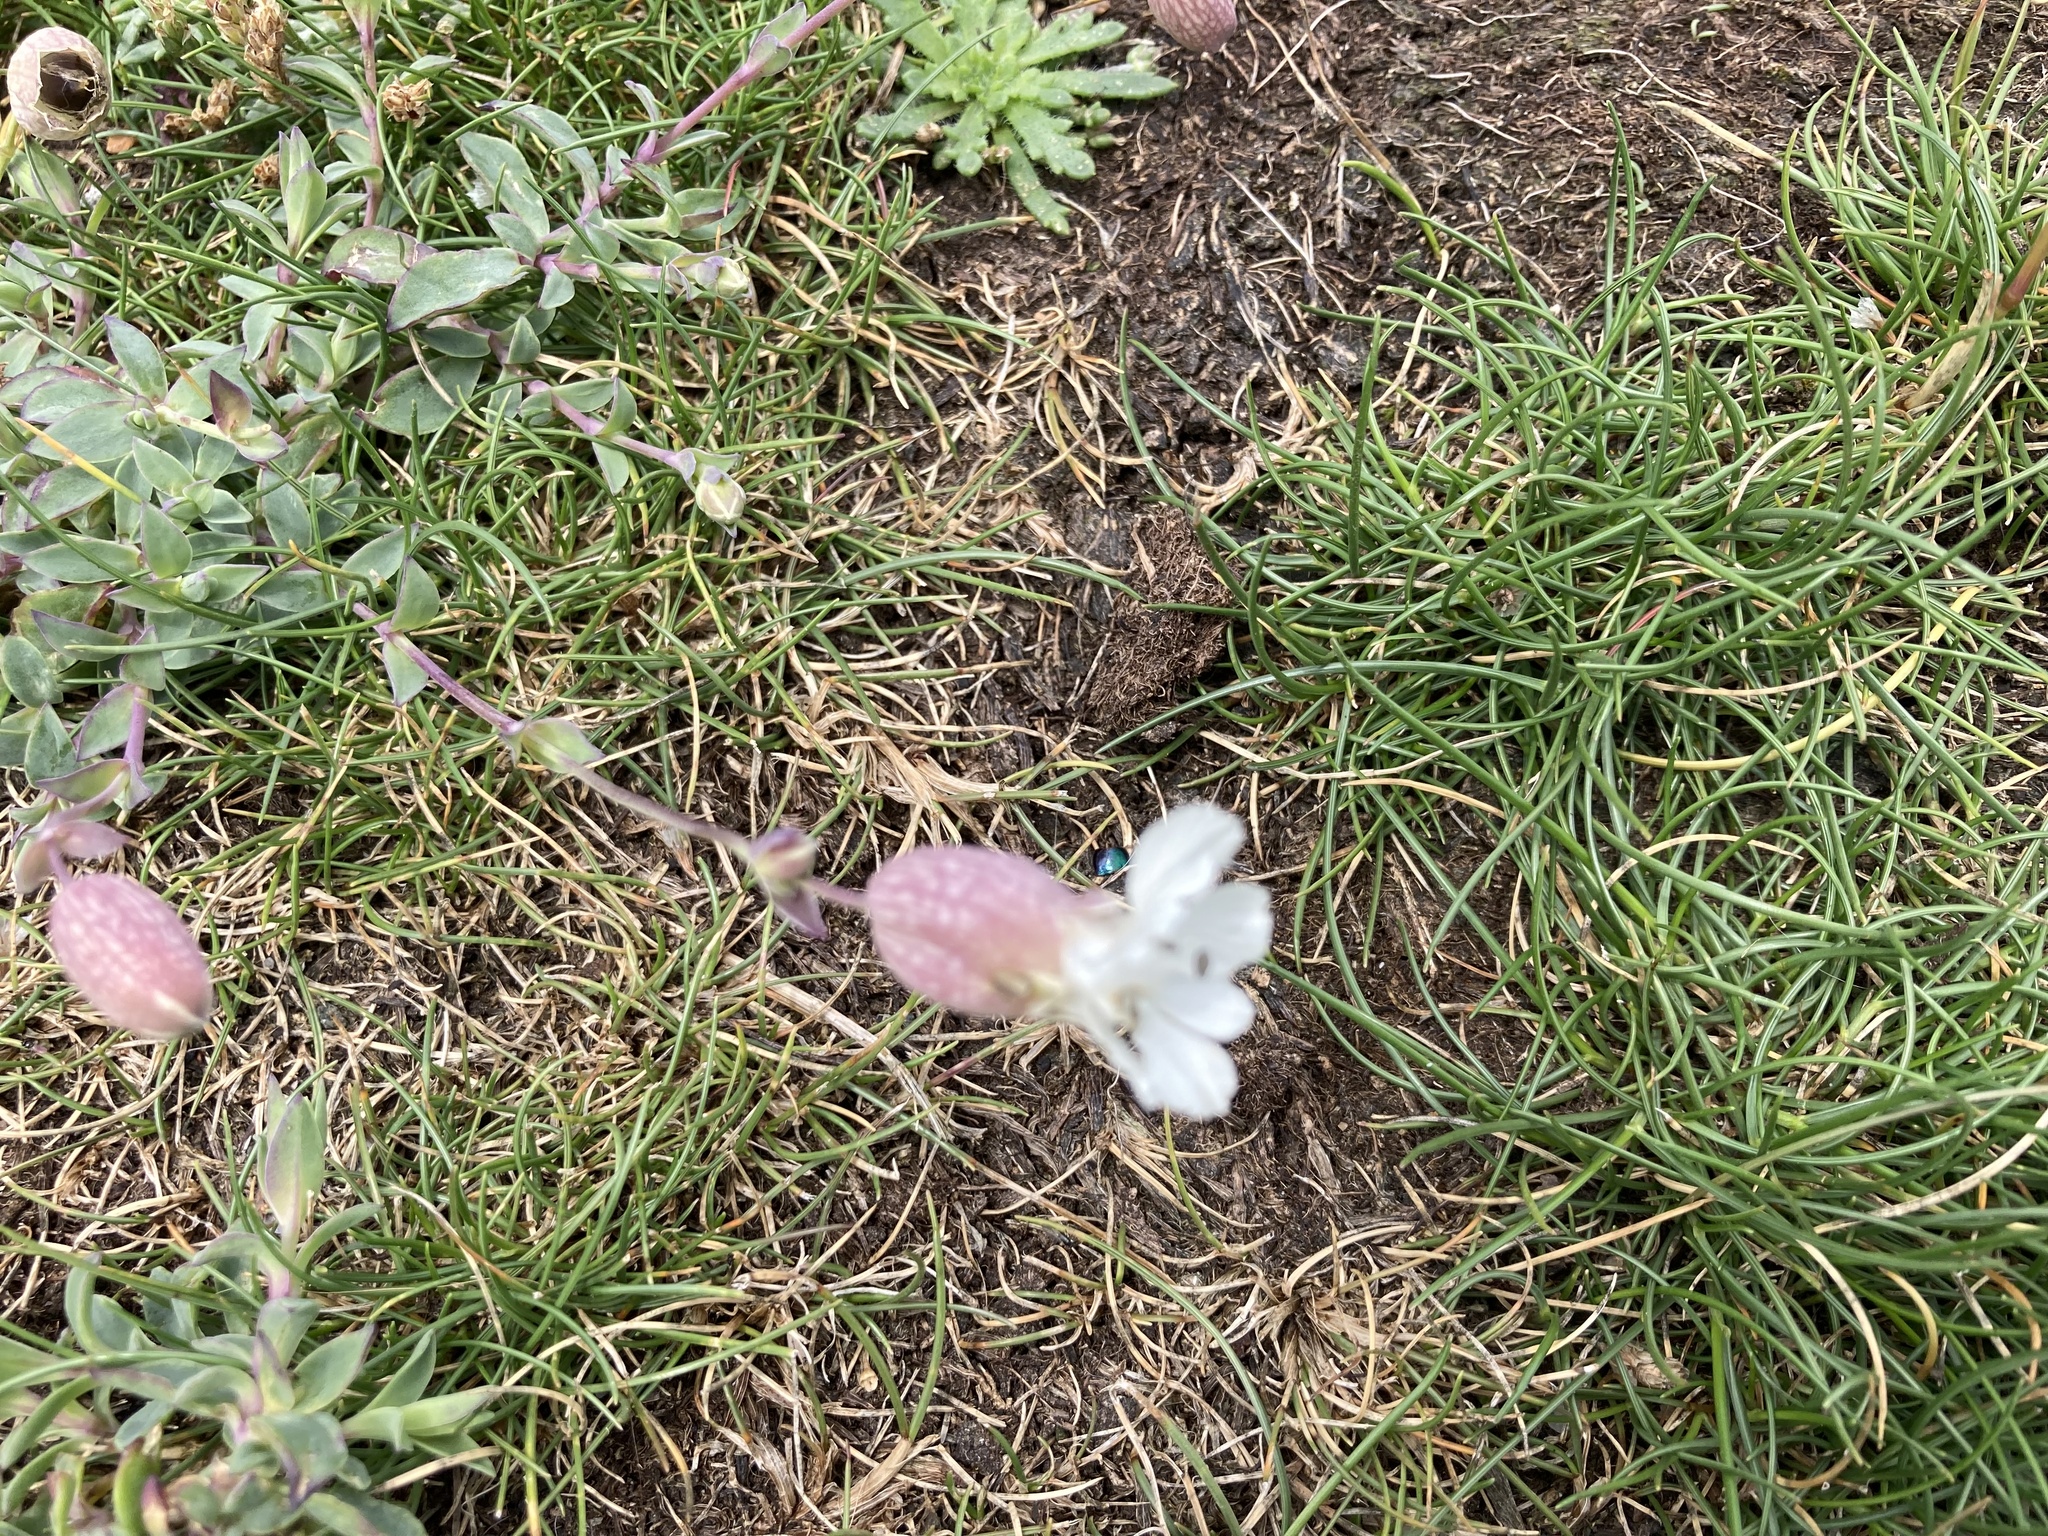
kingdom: Plantae
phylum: Tracheophyta
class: Magnoliopsida
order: Caryophyllales
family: Caryophyllaceae
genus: Silene
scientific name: Silene uniflora
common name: Sea campion
